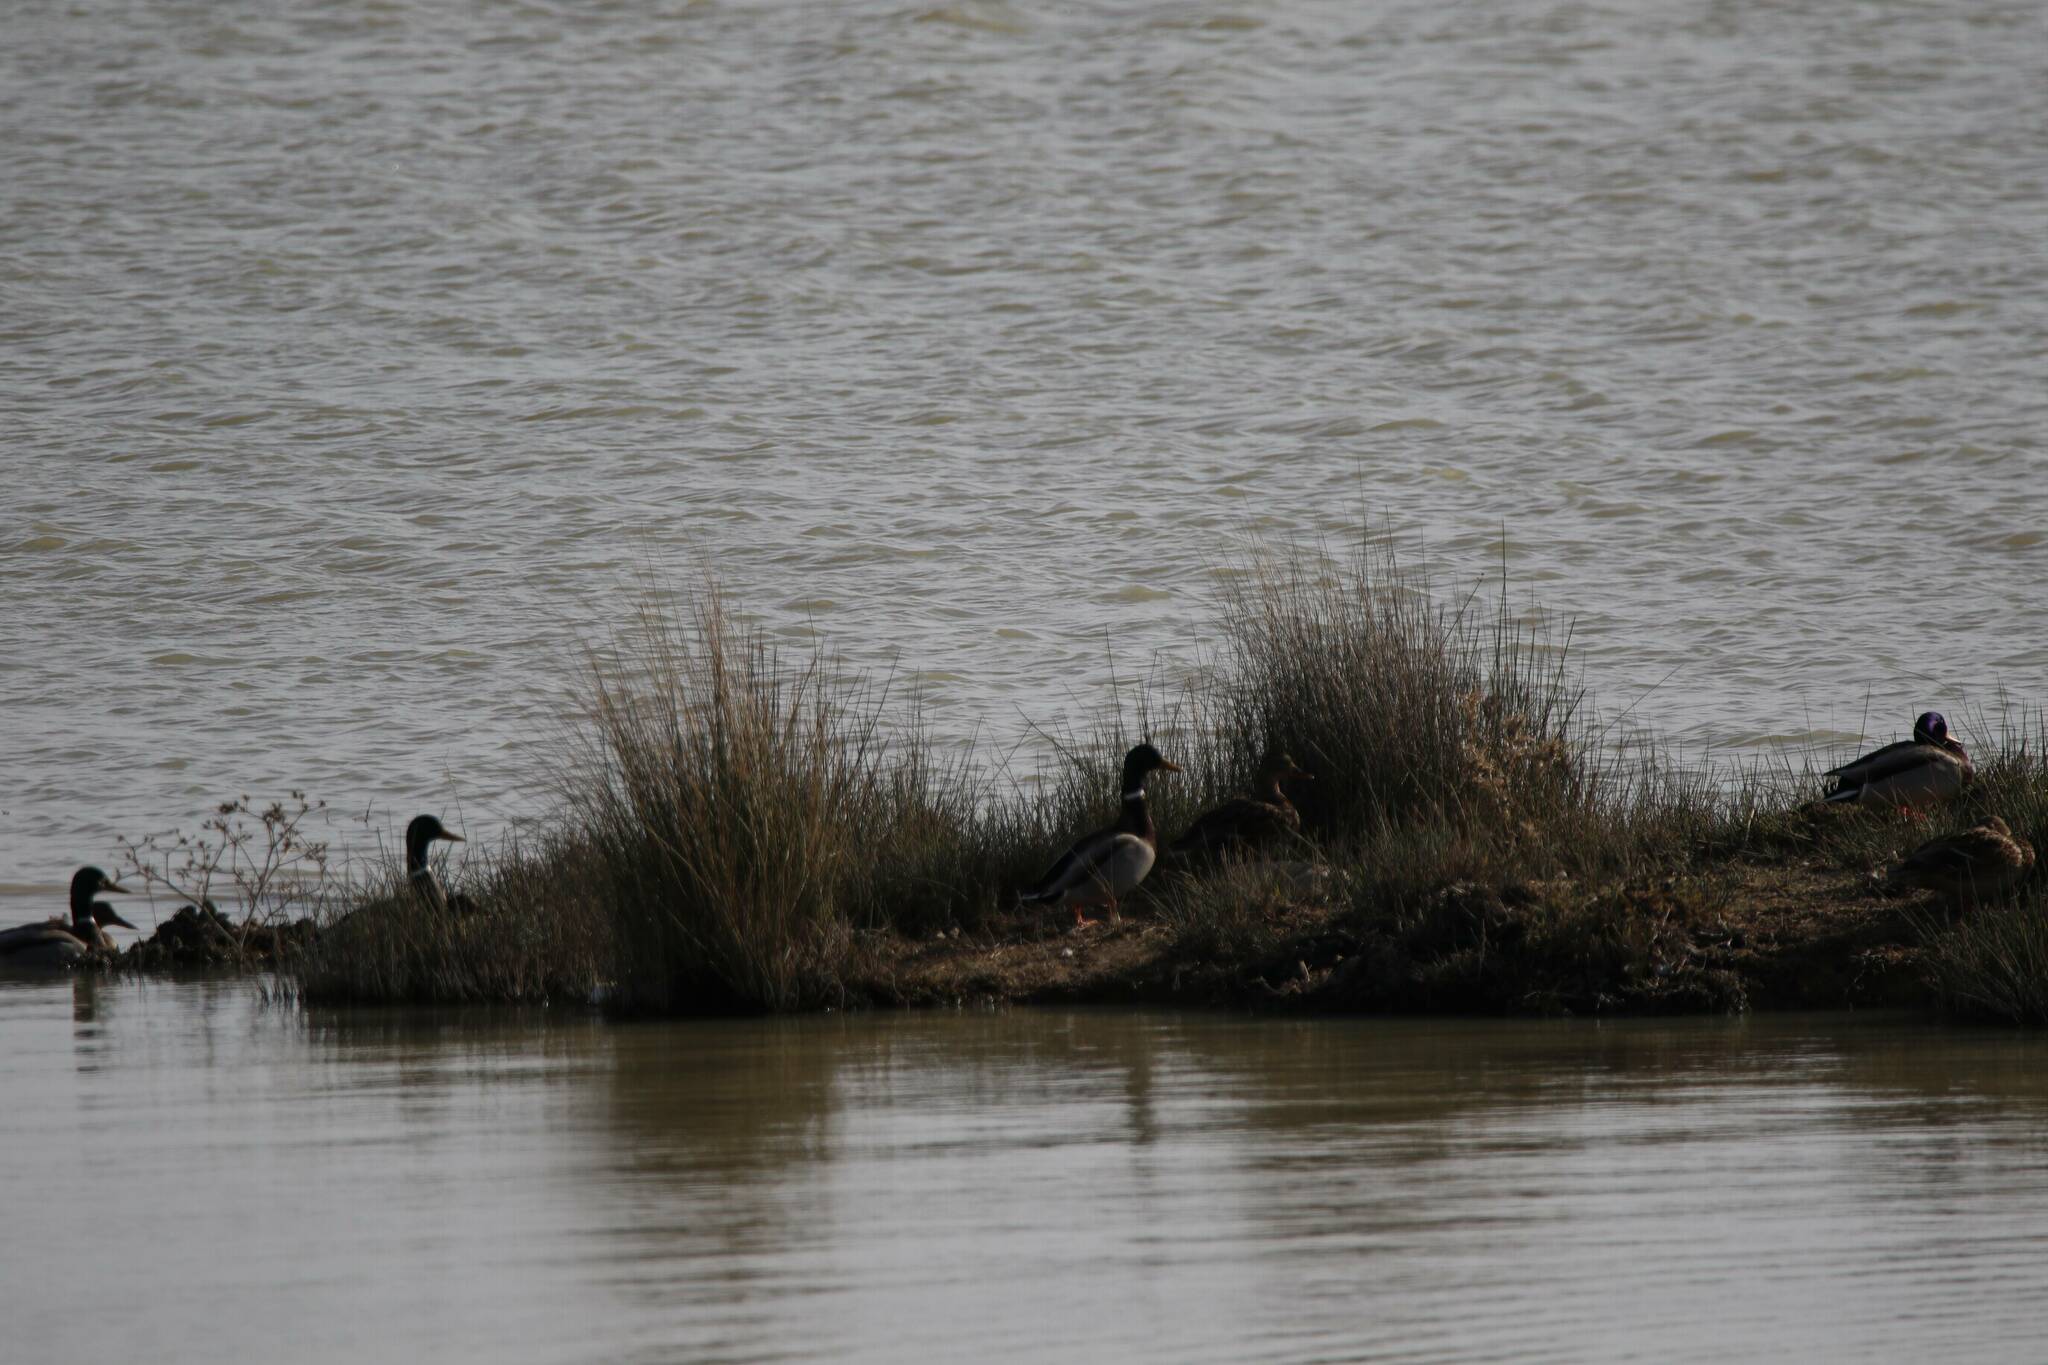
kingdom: Animalia
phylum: Chordata
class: Aves
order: Anseriformes
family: Anatidae
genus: Anas
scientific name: Anas platyrhynchos
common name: Mallard
